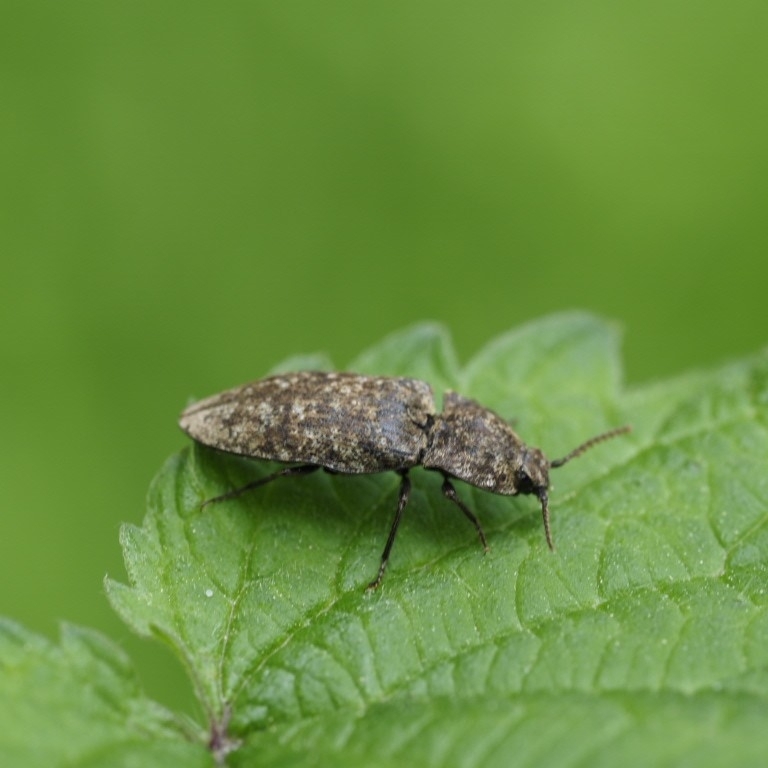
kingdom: Animalia
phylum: Arthropoda
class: Insecta
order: Coleoptera
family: Elateridae
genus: Agrypnus
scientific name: Agrypnus murinus
